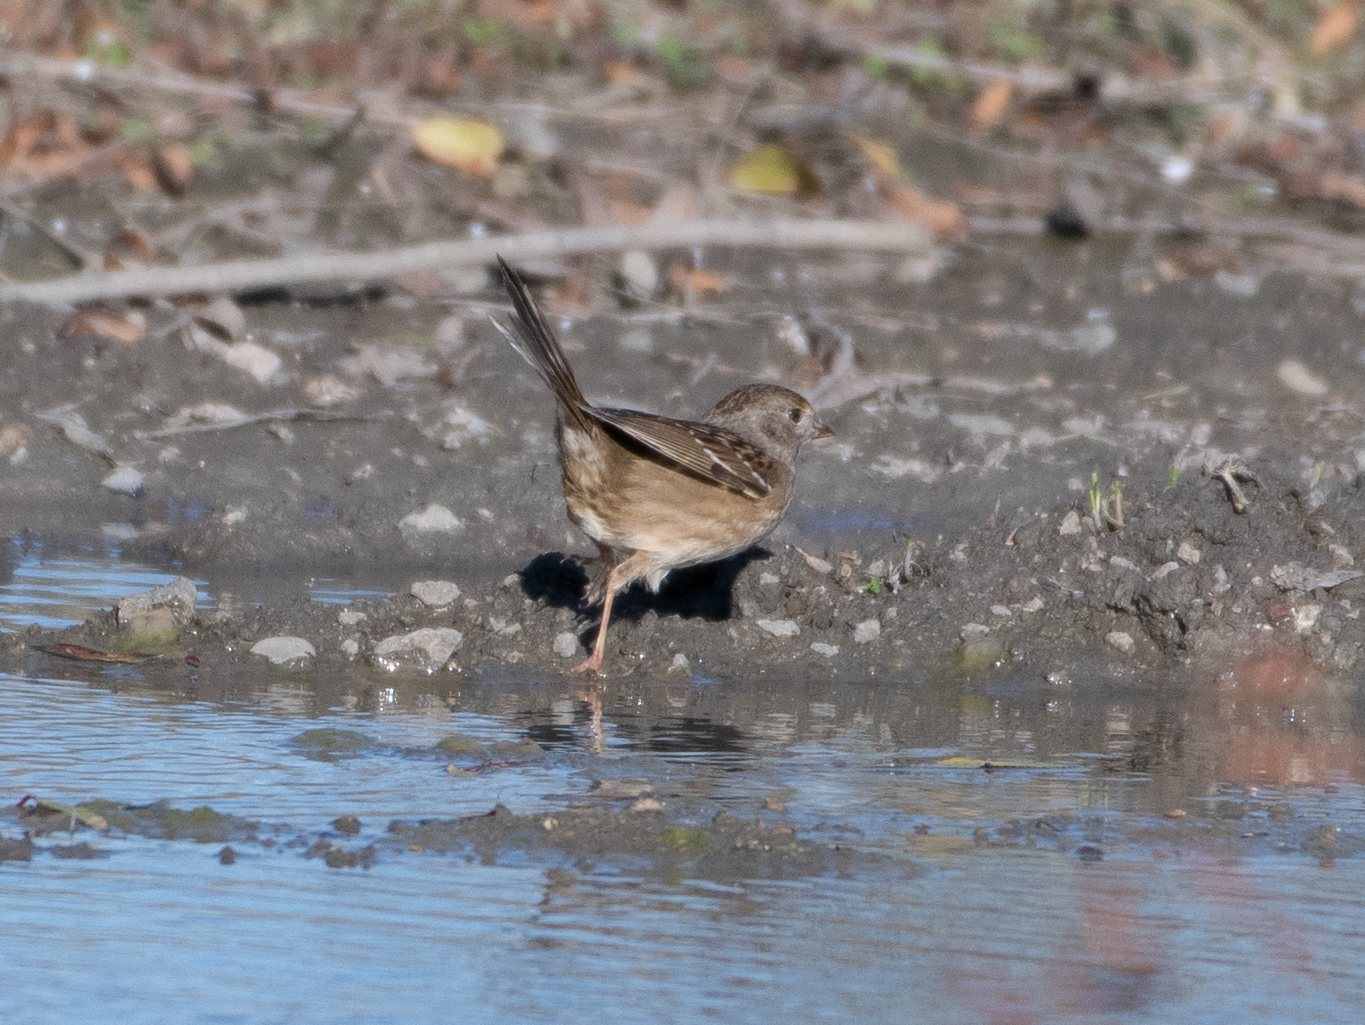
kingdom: Animalia
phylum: Chordata
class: Aves
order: Passeriformes
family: Passerellidae
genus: Zonotrichia
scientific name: Zonotrichia atricapilla
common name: Golden-crowned sparrow
